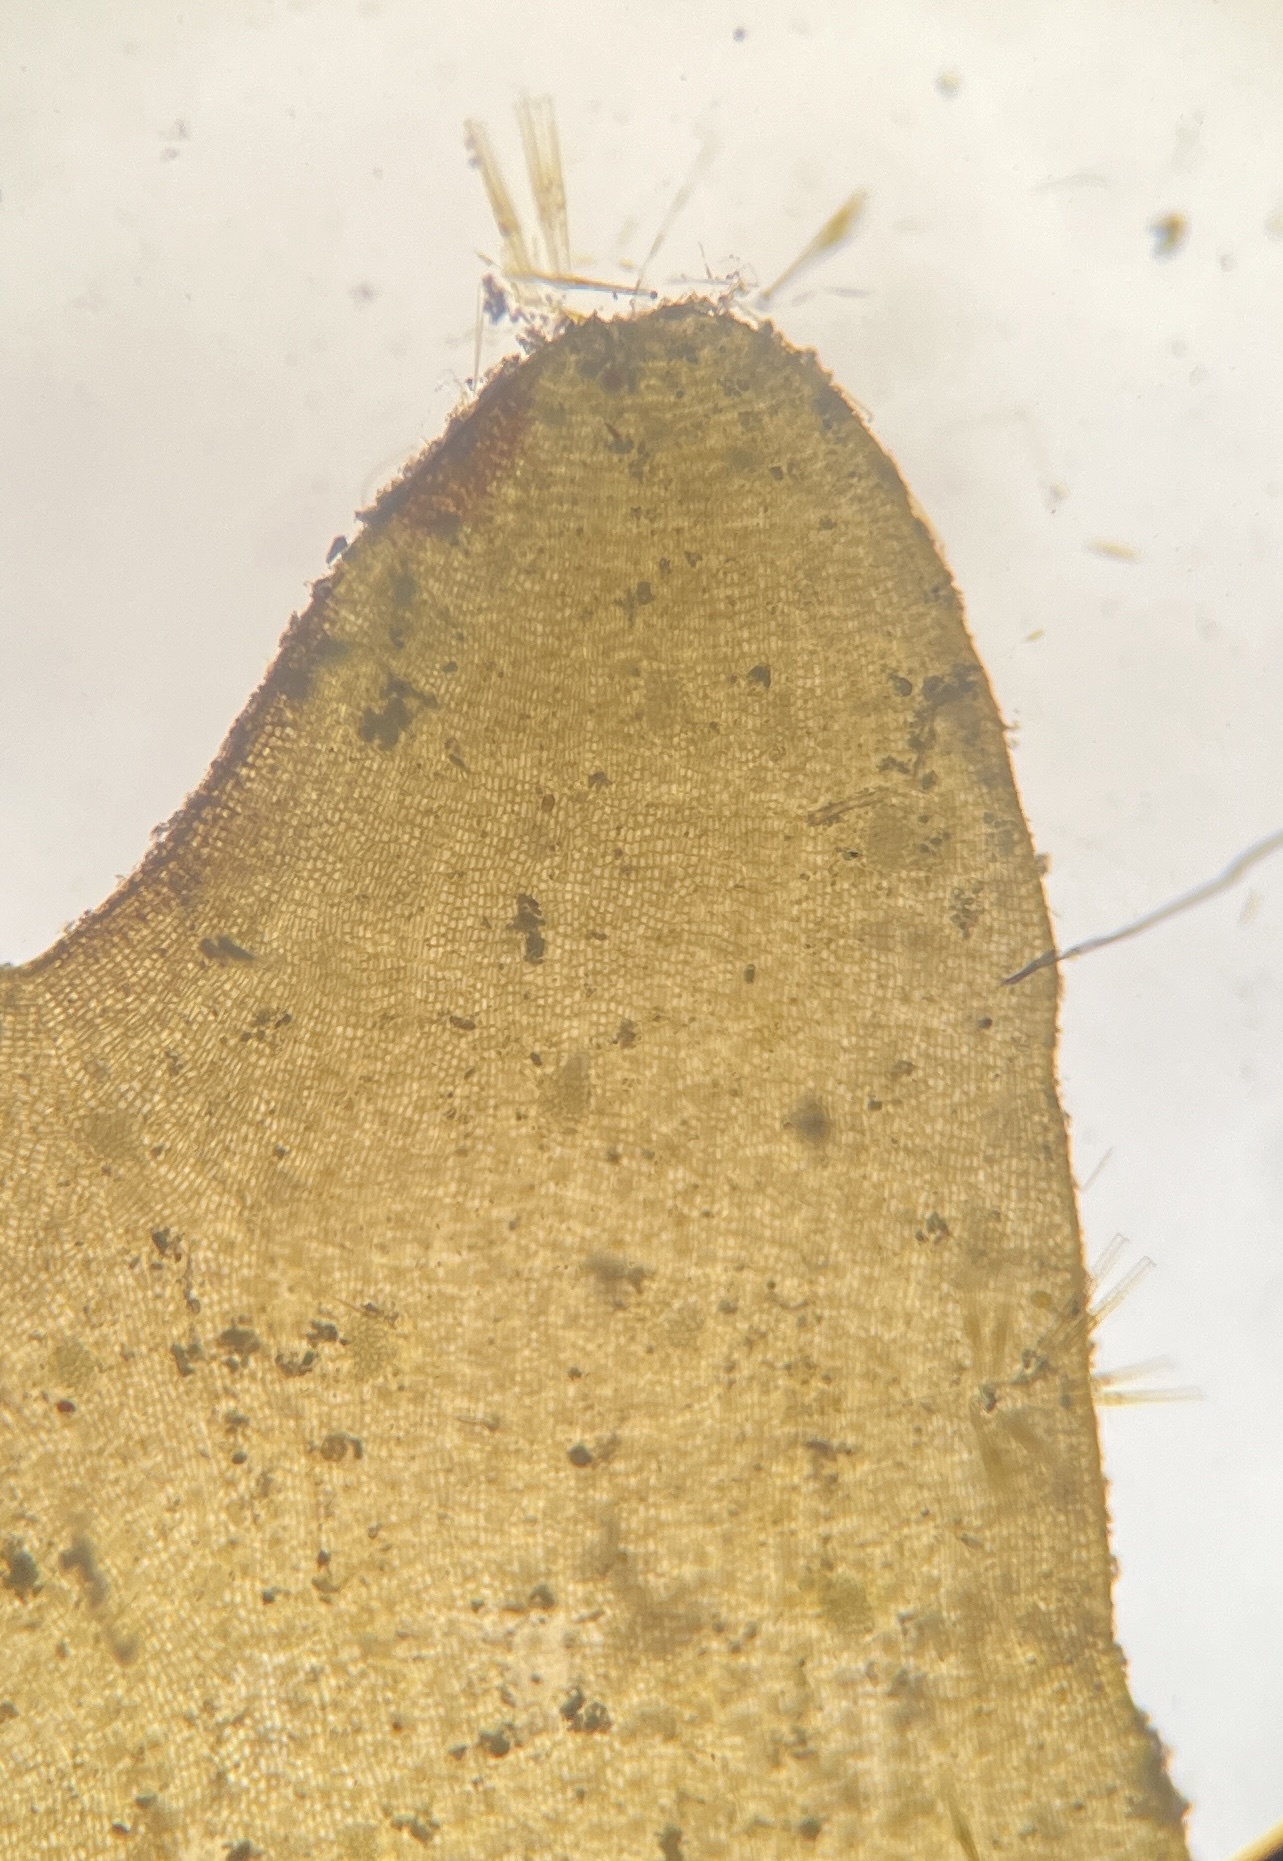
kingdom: Chromista
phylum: Ochrophyta
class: Phaeophyceae
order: Dictyotales
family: Dictyotaceae
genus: Dictyota
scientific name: Dictyota menstrualis
